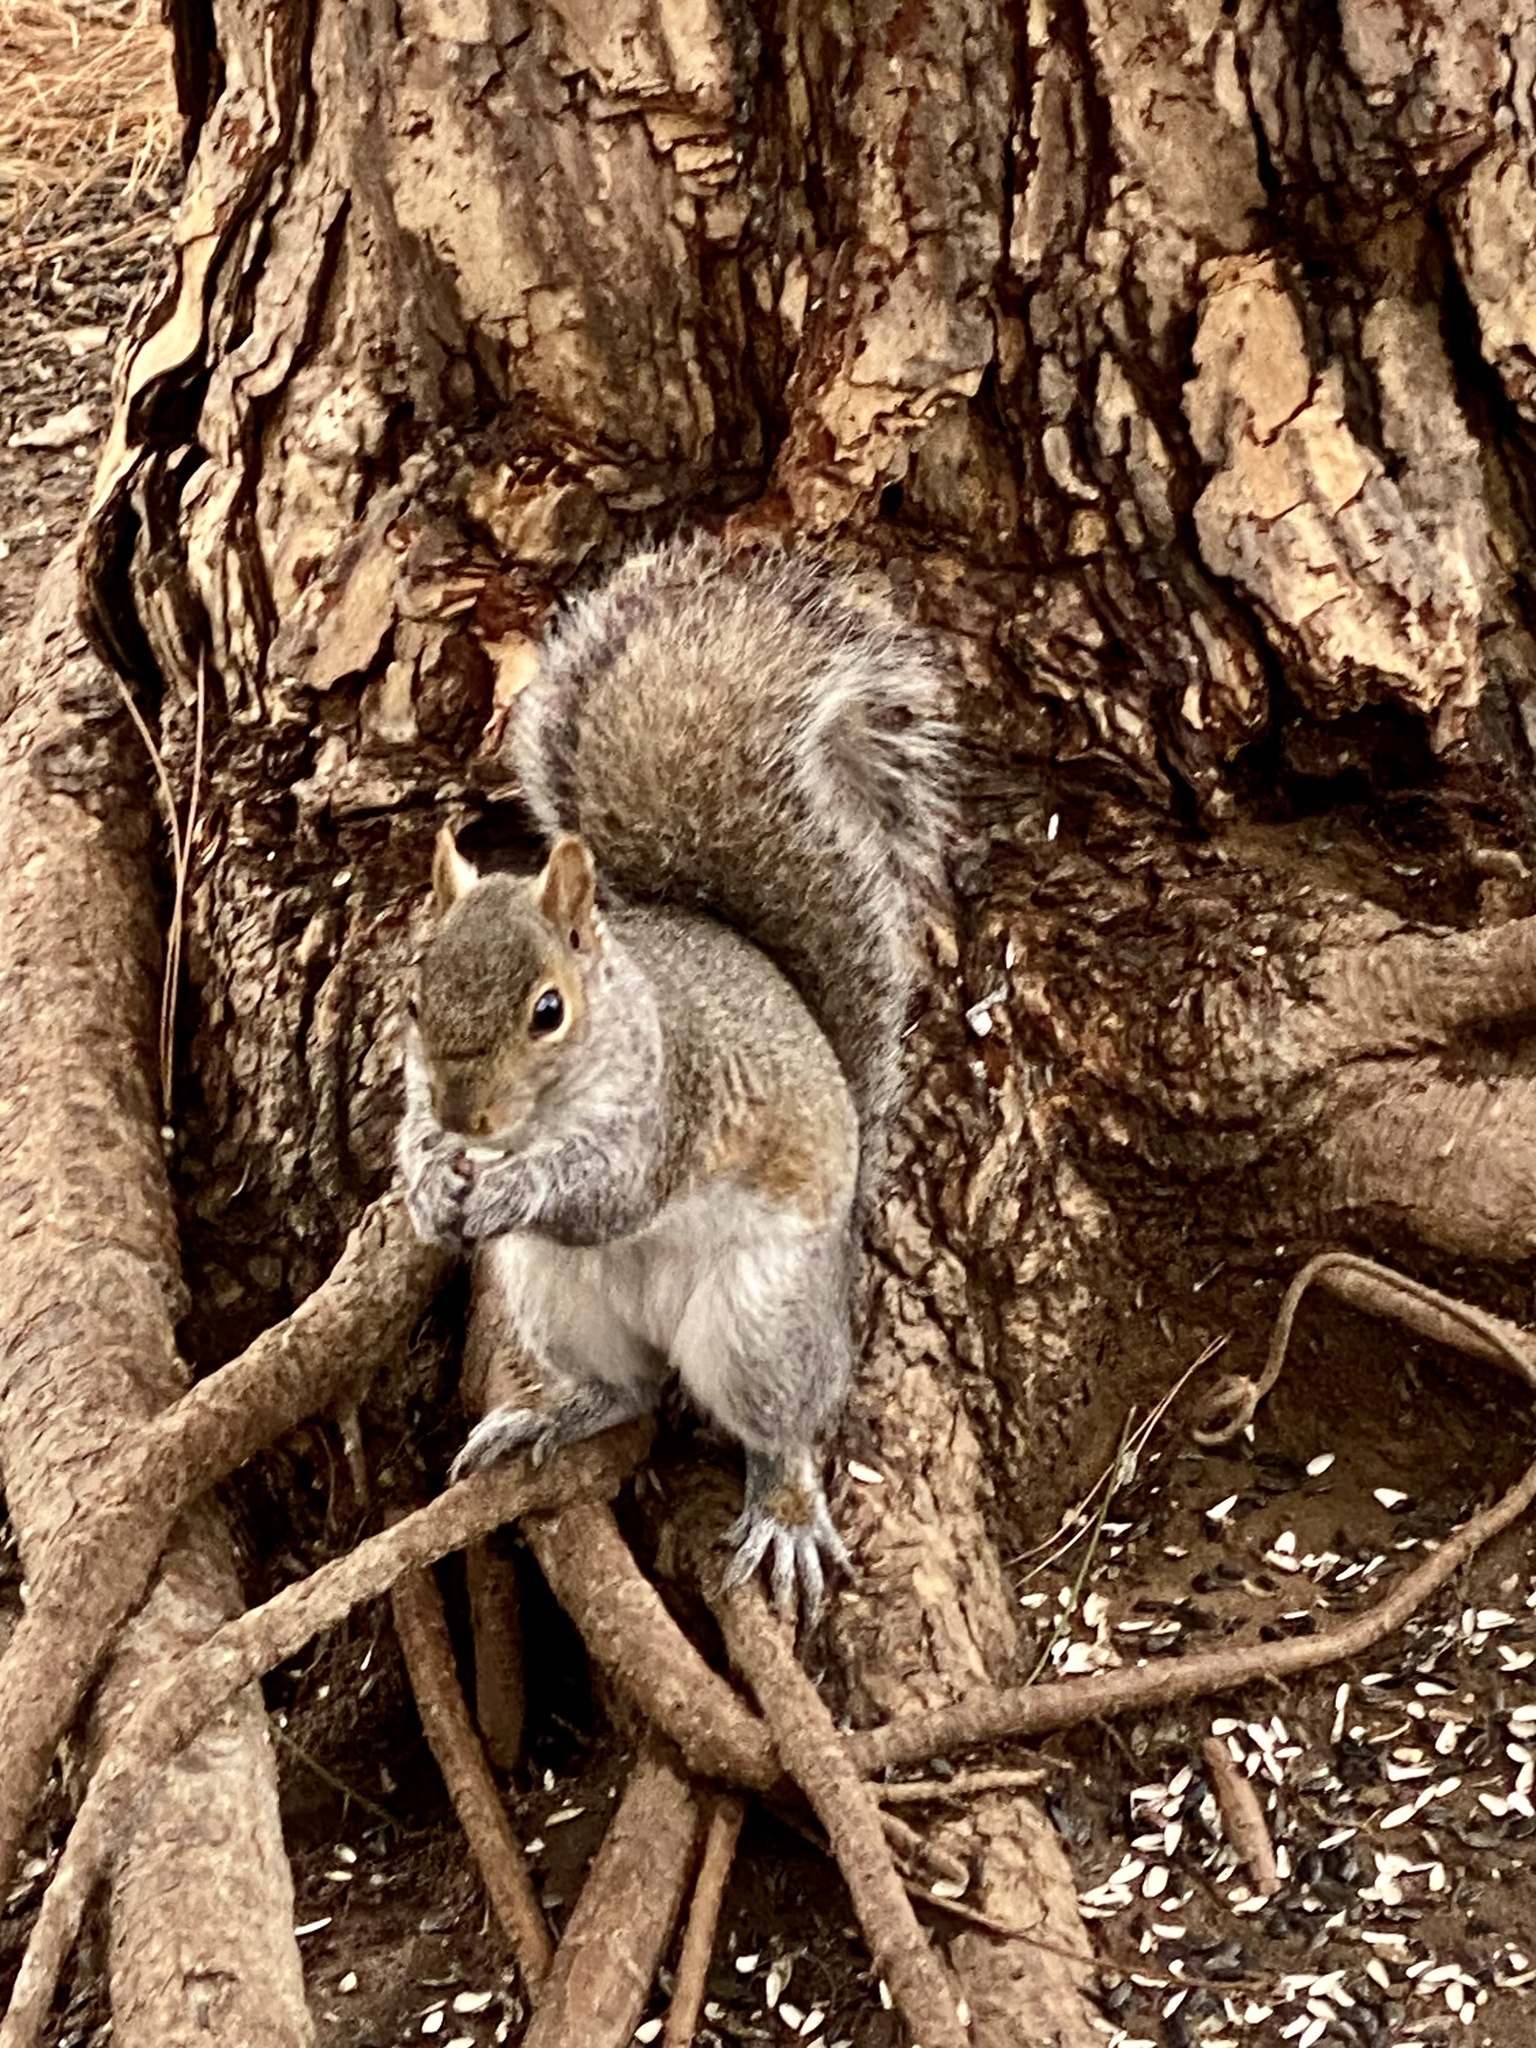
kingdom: Animalia
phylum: Chordata
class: Mammalia
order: Rodentia
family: Sciuridae
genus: Sciurus
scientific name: Sciurus carolinensis
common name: Eastern gray squirrel
